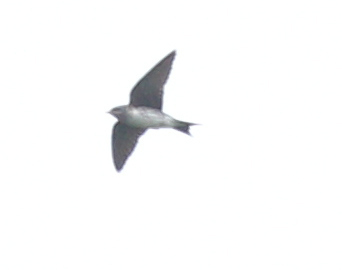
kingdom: Animalia
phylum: Chordata
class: Aves
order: Passeriformes
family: Hirundinidae
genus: Progne
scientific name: Progne chalybea
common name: Grey-breasted martin
